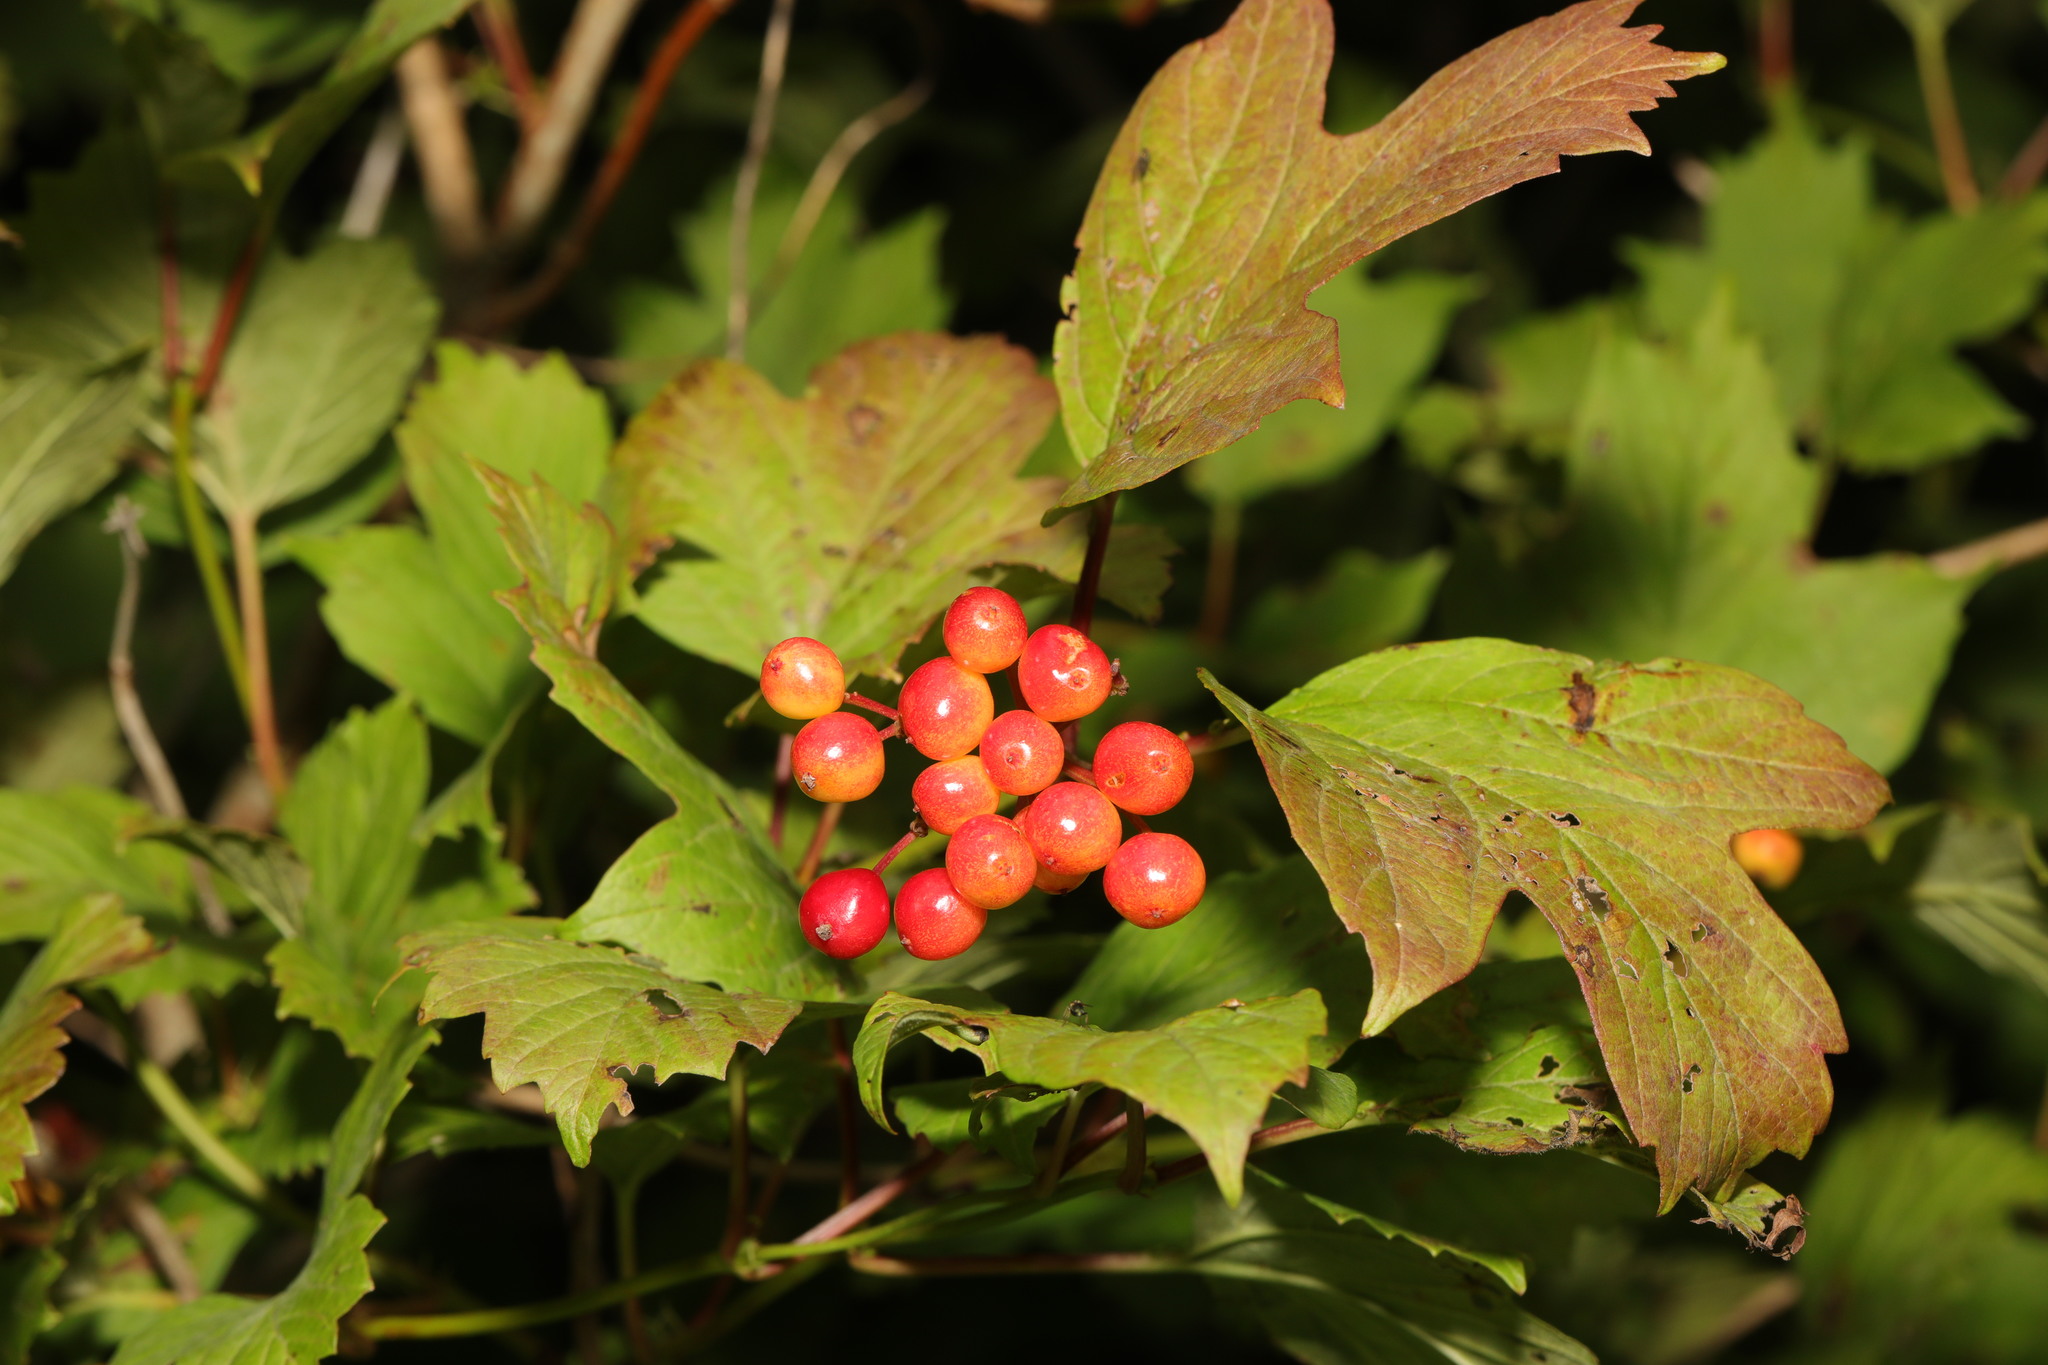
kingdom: Plantae
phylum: Tracheophyta
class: Magnoliopsida
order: Dipsacales
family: Viburnaceae
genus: Viburnum
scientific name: Viburnum opulus
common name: Guelder-rose
